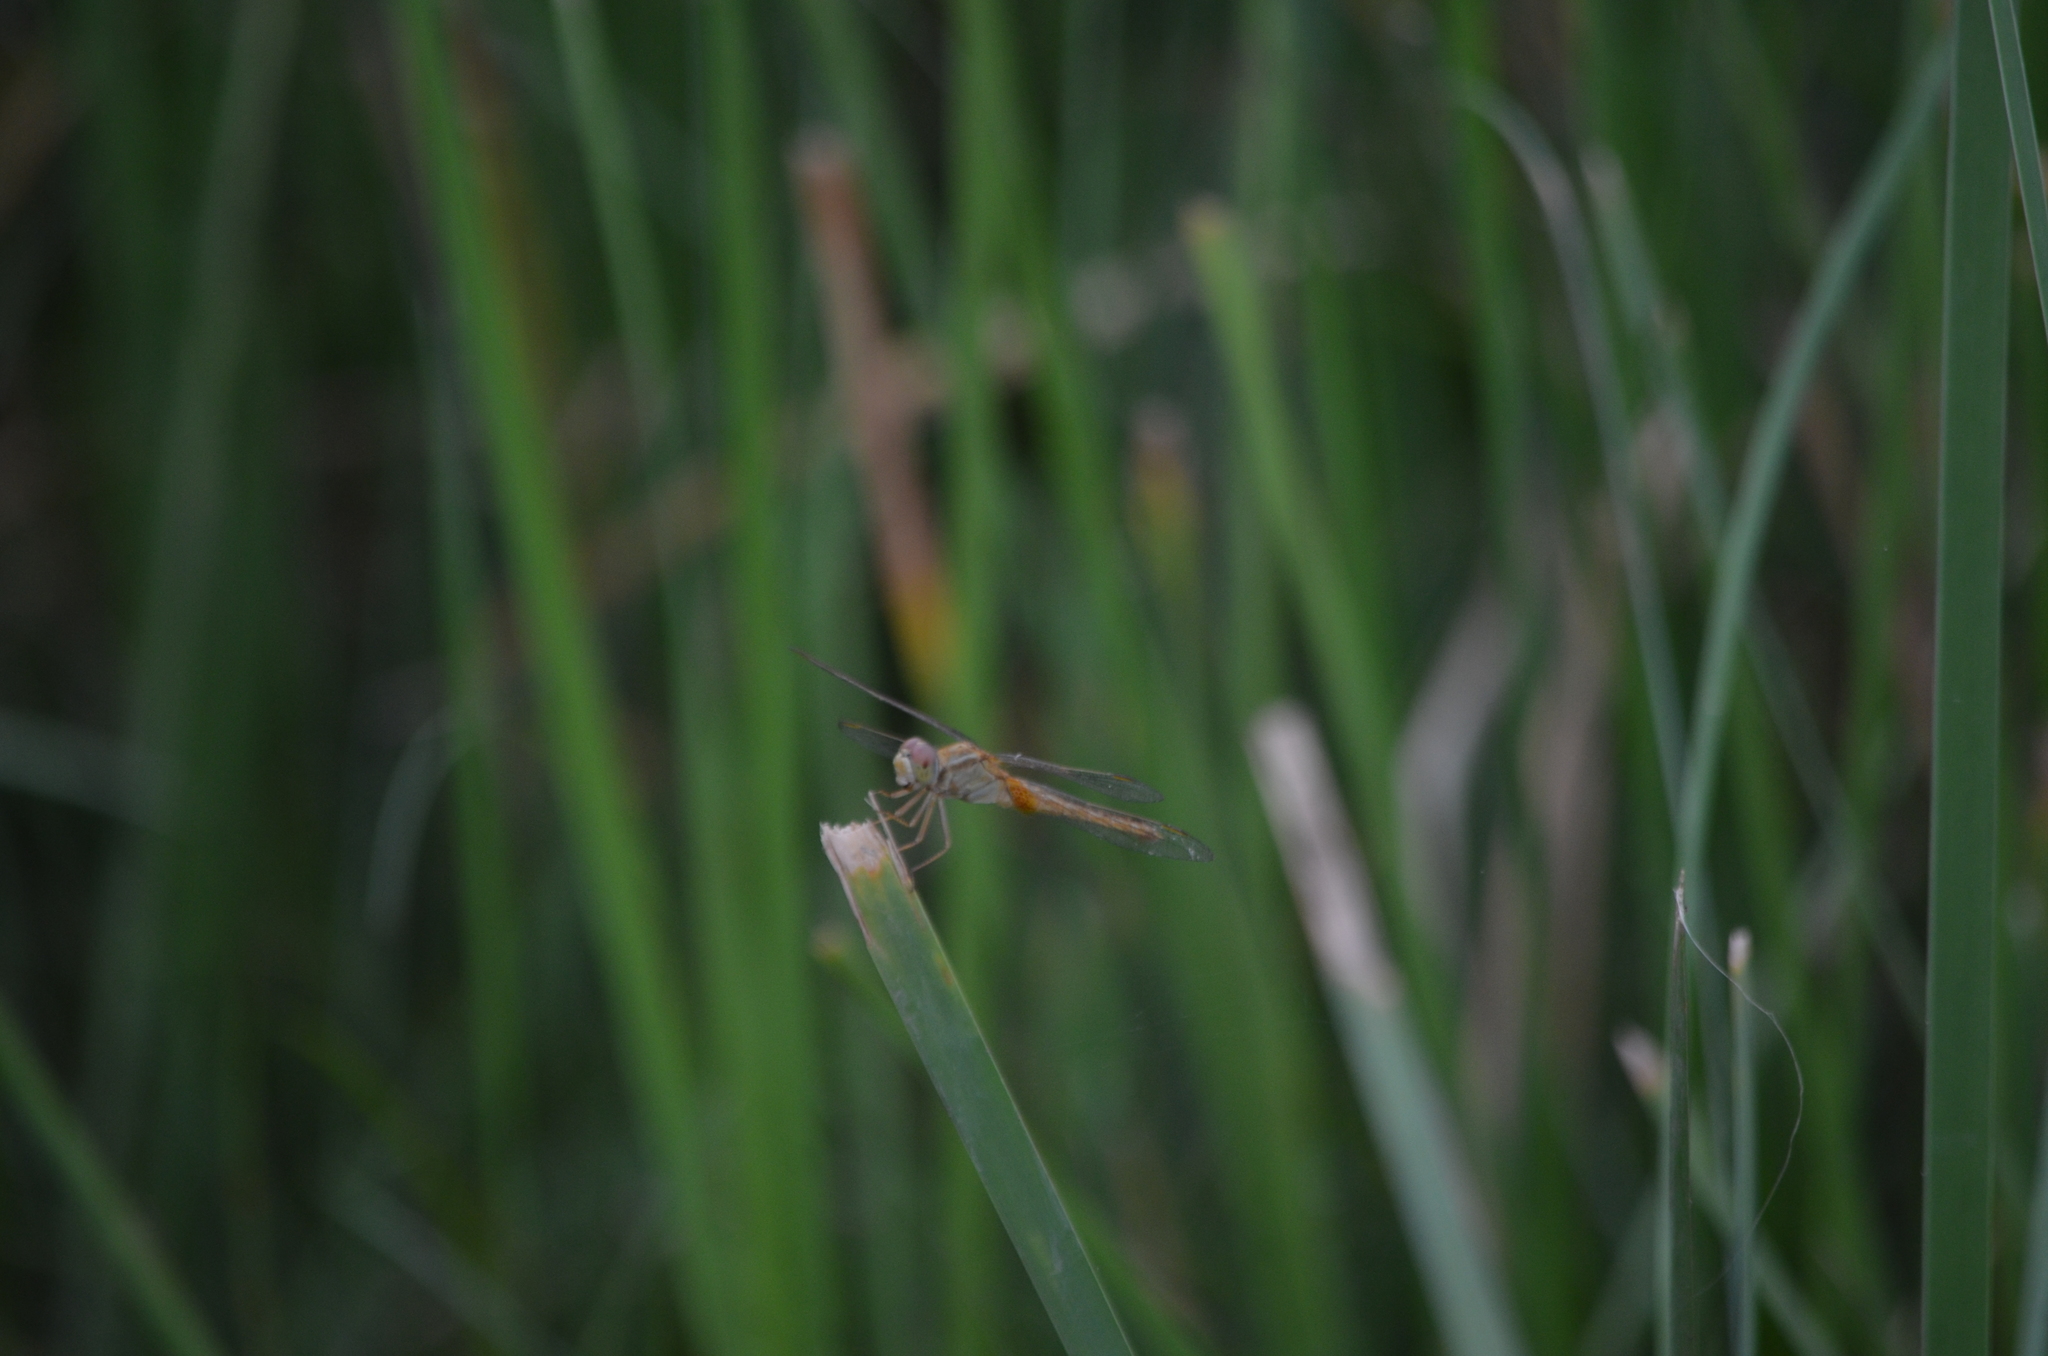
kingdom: Animalia
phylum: Arthropoda
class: Insecta
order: Odonata
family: Libellulidae
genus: Crocothemis
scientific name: Crocothemis servilia
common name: Scarlet skimmer
